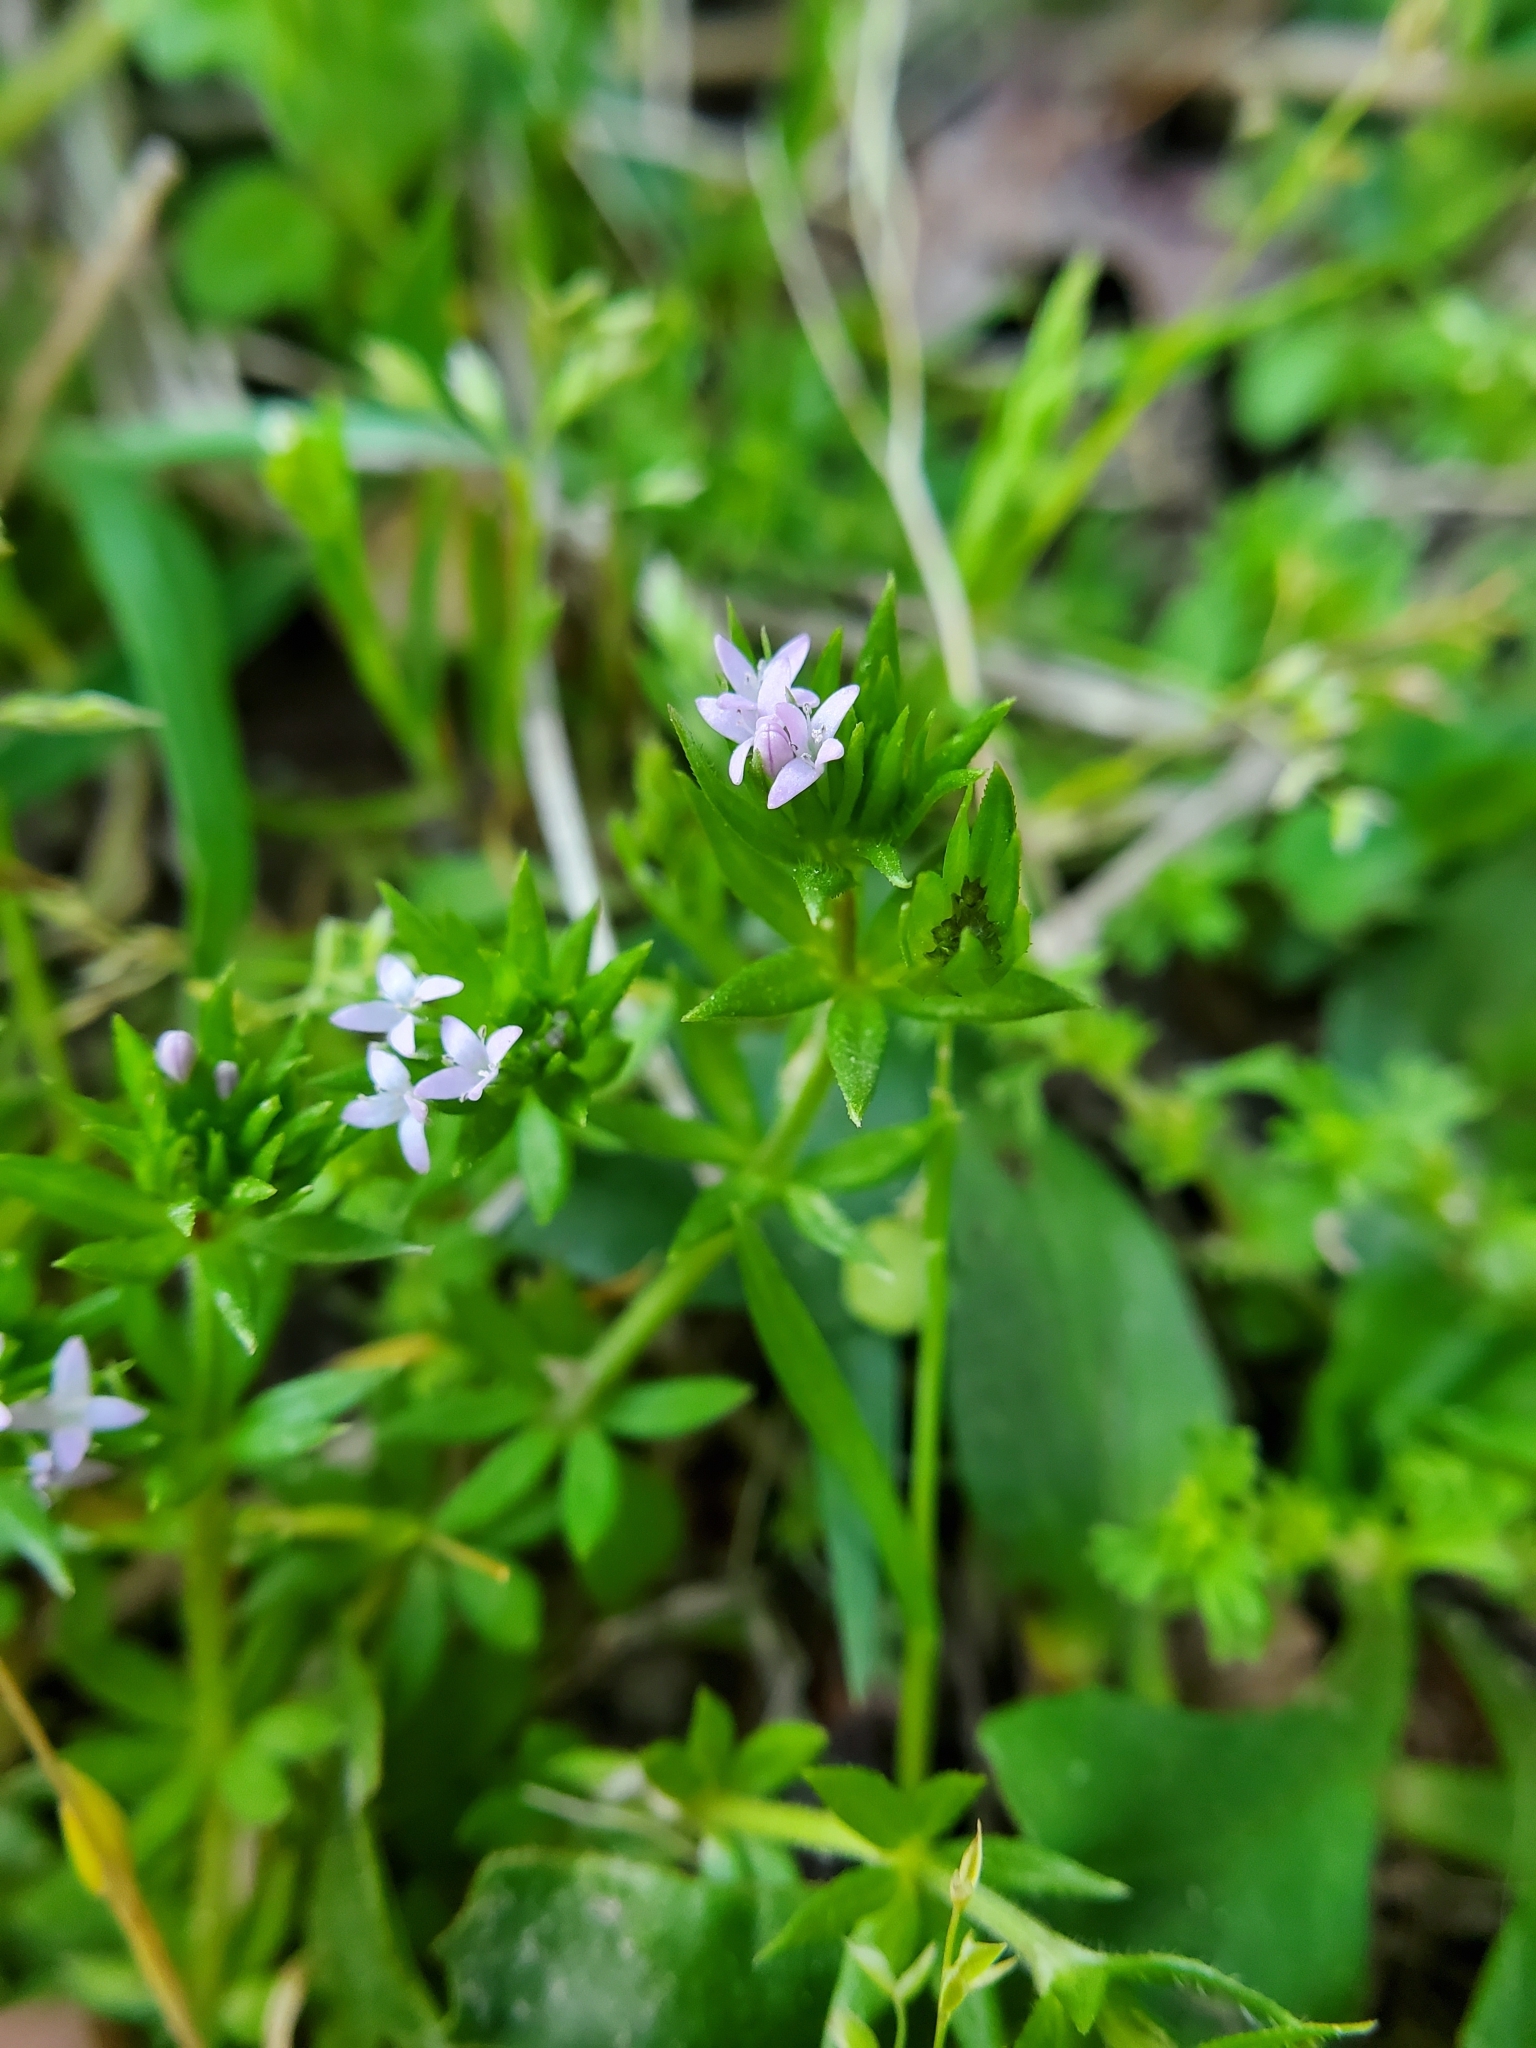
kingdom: Plantae
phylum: Tracheophyta
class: Magnoliopsida
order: Gentianales
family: Rubiaceae
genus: Sherardia
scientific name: Sherardia arvensis
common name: Field madder
